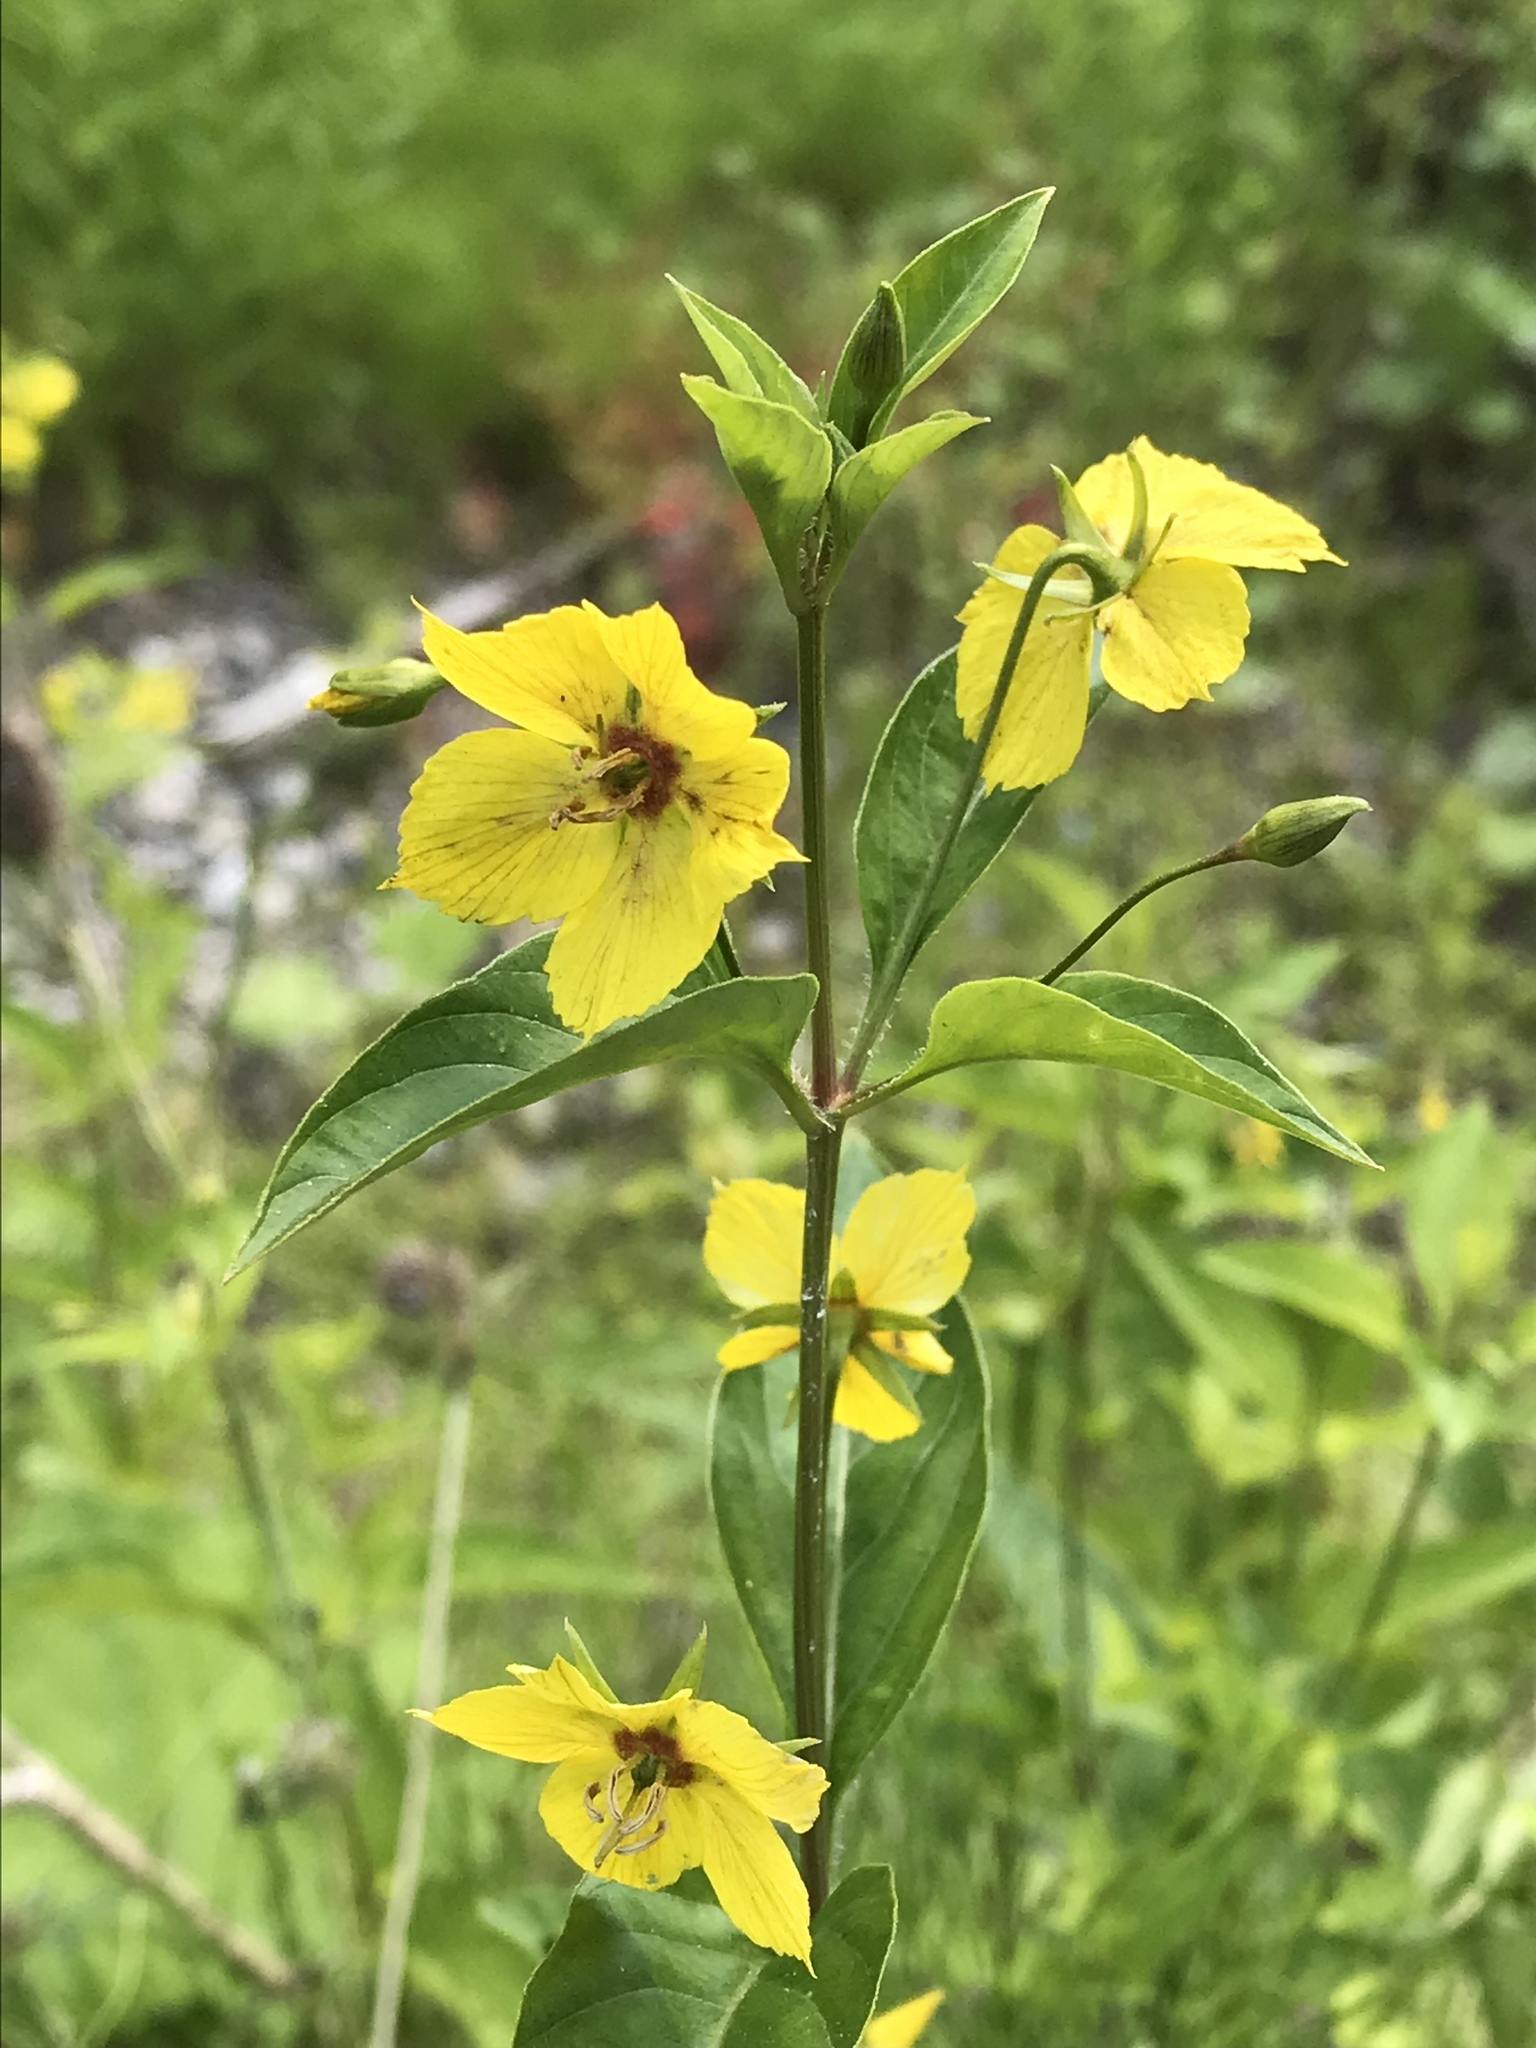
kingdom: Plantae
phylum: Tracheophyta
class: Magnoliopsida
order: Ericales
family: Primulaceae
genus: Lysimachia
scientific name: Lysimachia ciliata
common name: Fringed loosestrife
